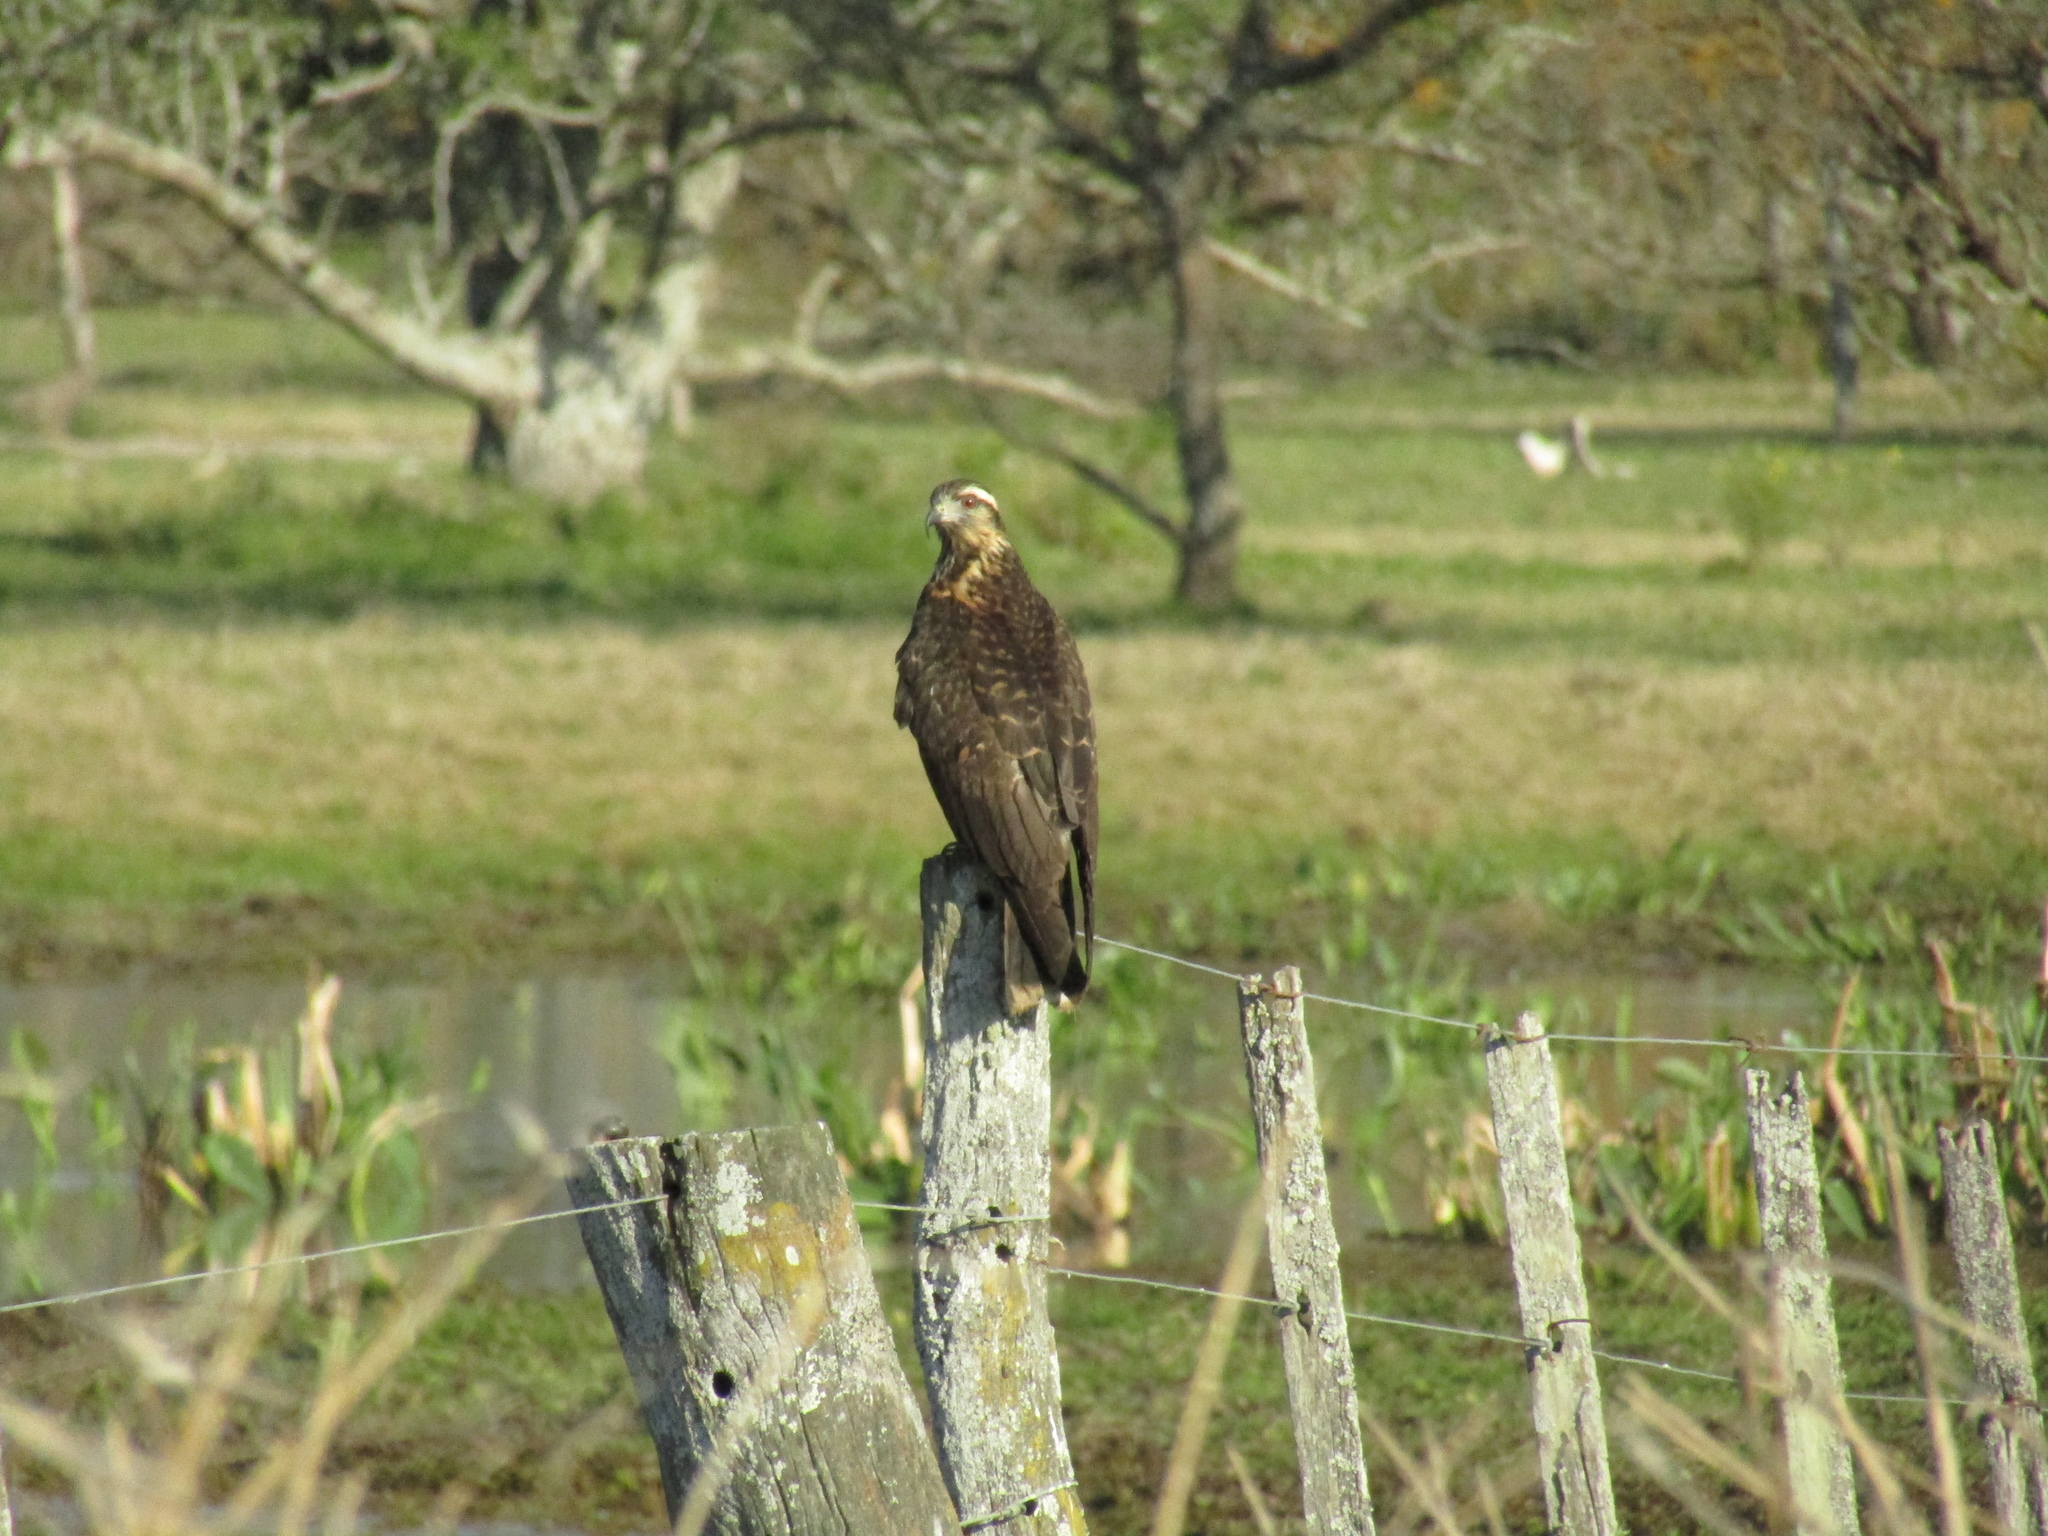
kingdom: Animalia
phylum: Chordata
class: Aves
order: Accipitriformes
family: Accipitridae
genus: Rostrhamus
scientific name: Rostrhamus sociabilis
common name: Snail kite
